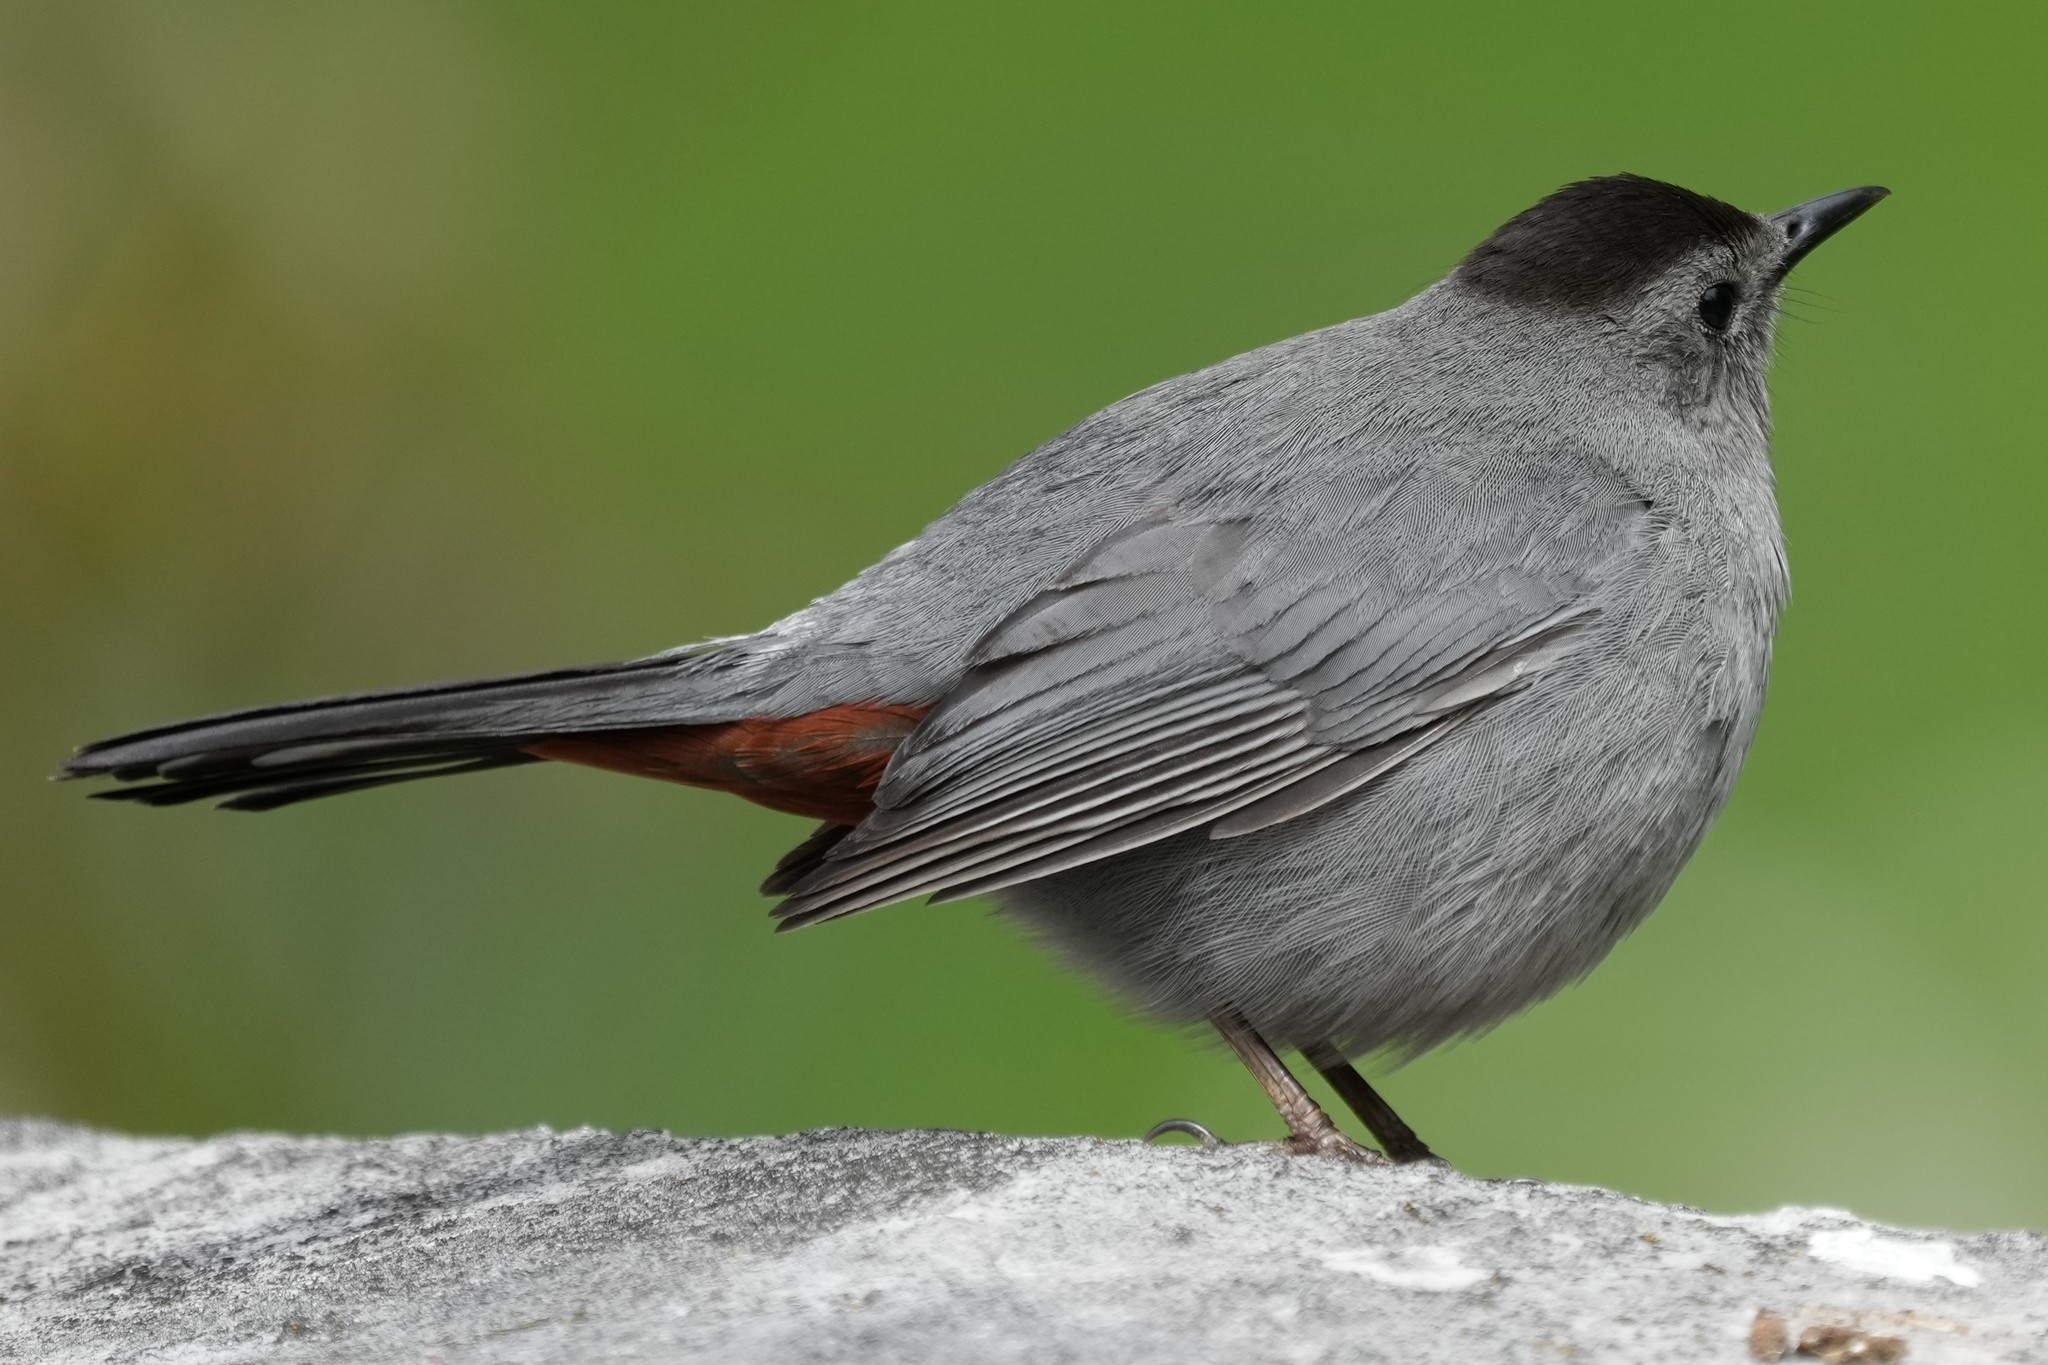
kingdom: Animalia
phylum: Chordata
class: Aves
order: Passeriformes
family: Mimidae
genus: Dumetella
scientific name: Dumetella carolinensis
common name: Gray catbird
